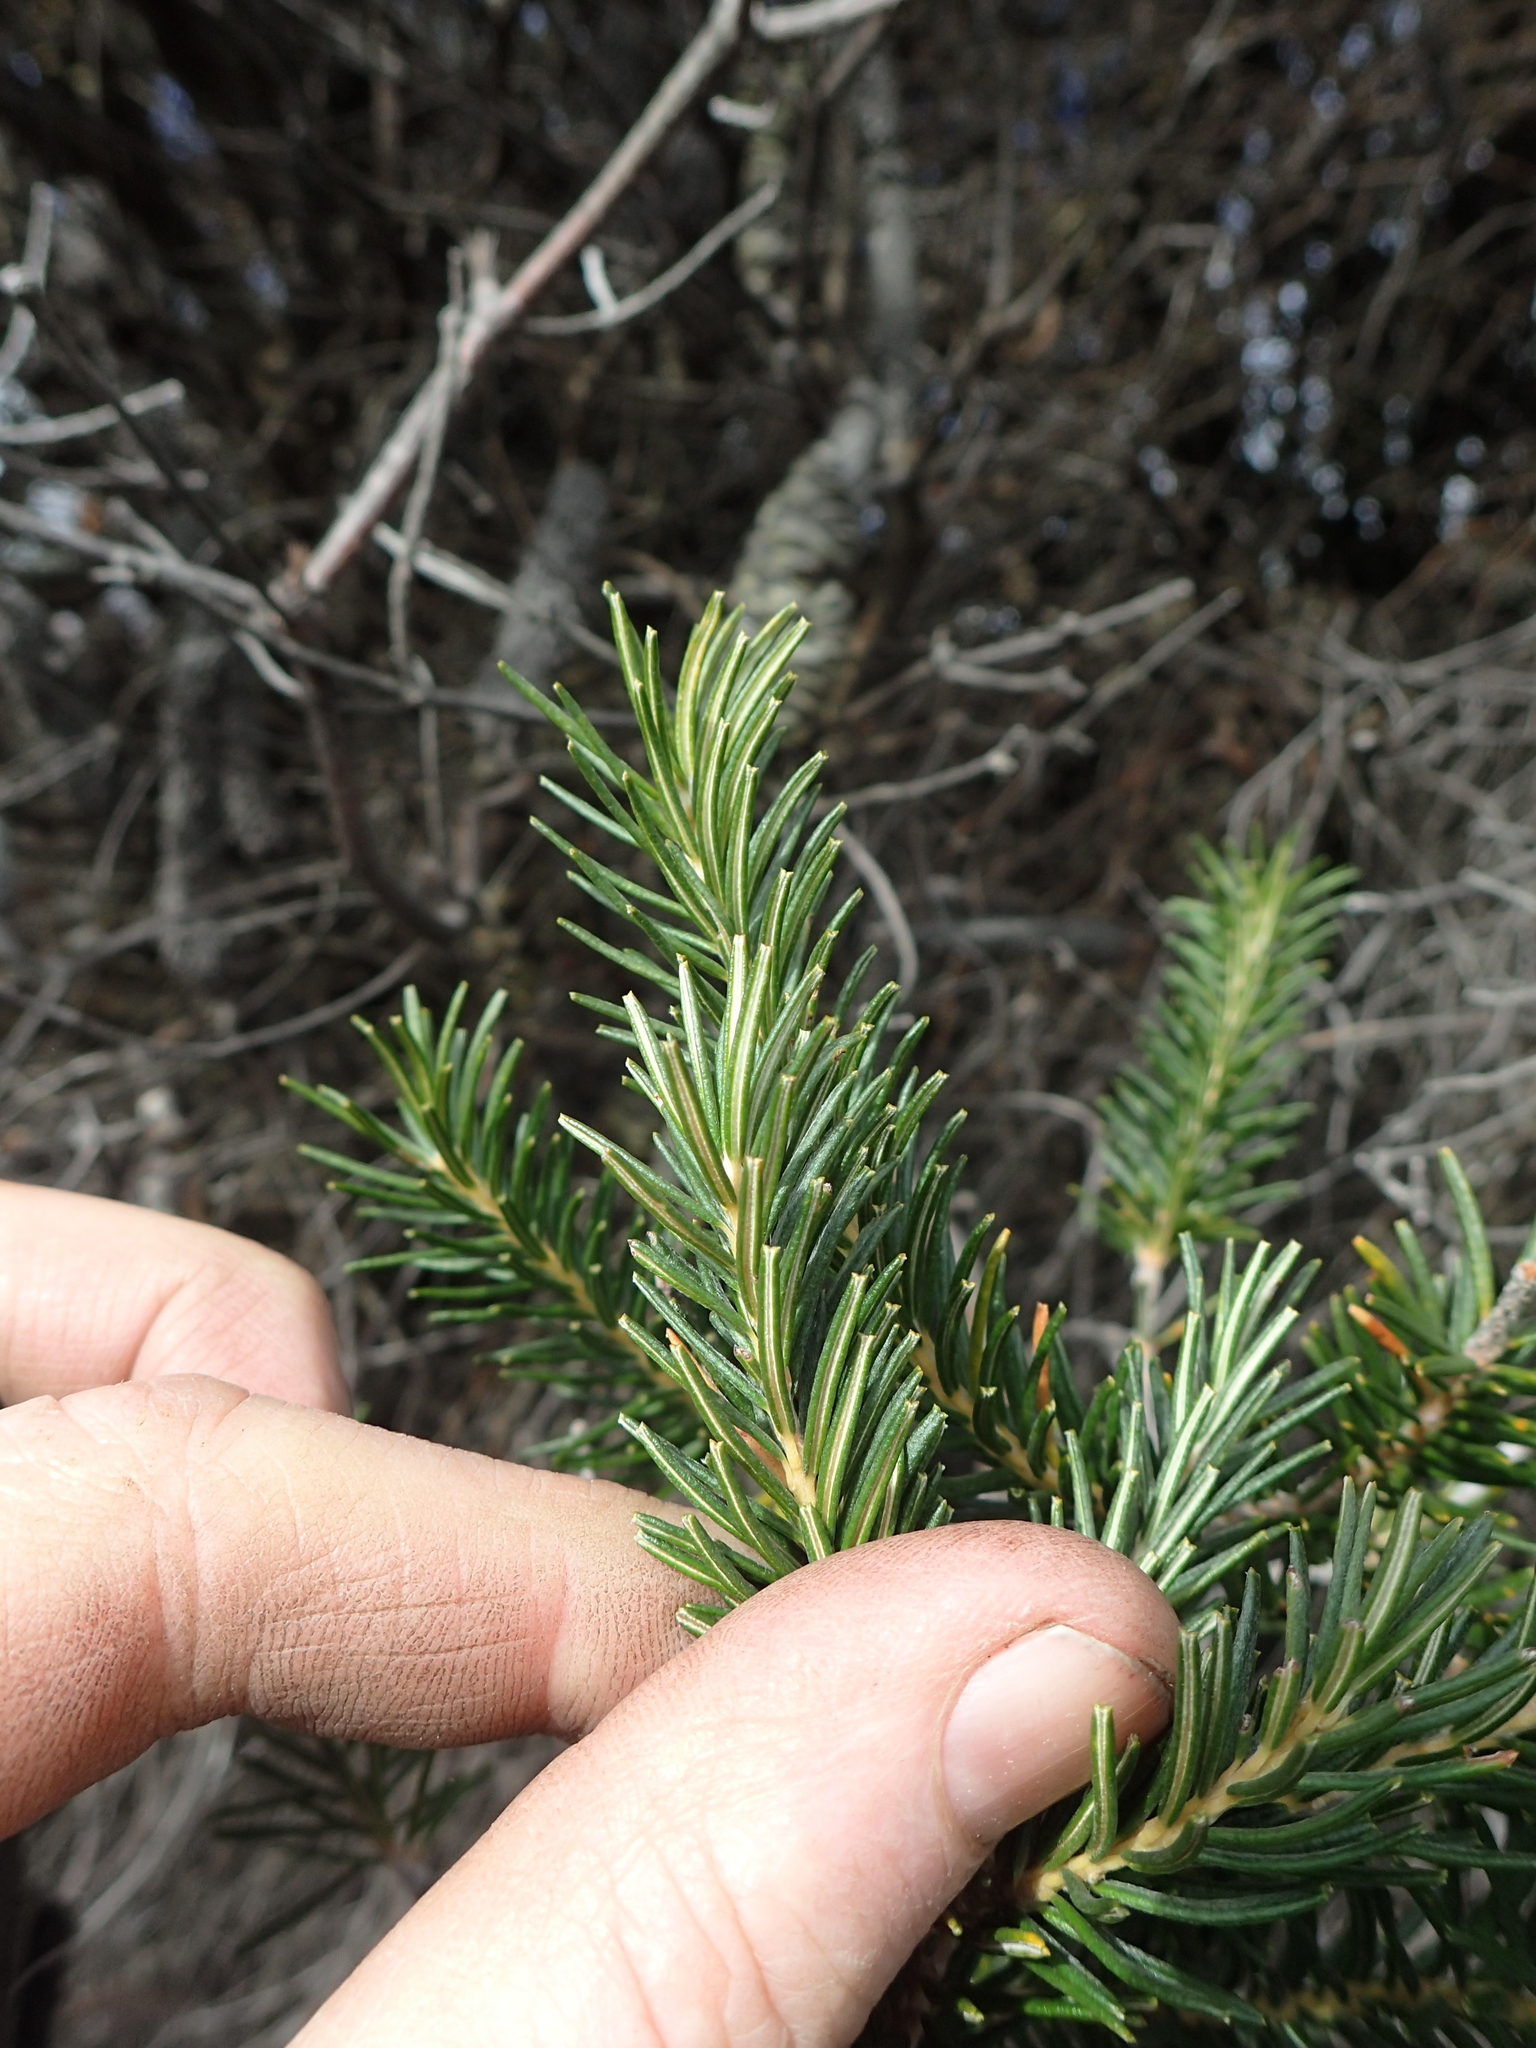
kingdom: Plantae
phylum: Tracheophyta
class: Magnoliopsida
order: Proteales
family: Proteaceae
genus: Banksia
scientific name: Banksia ericifolia
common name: Heath-leaf banksia
